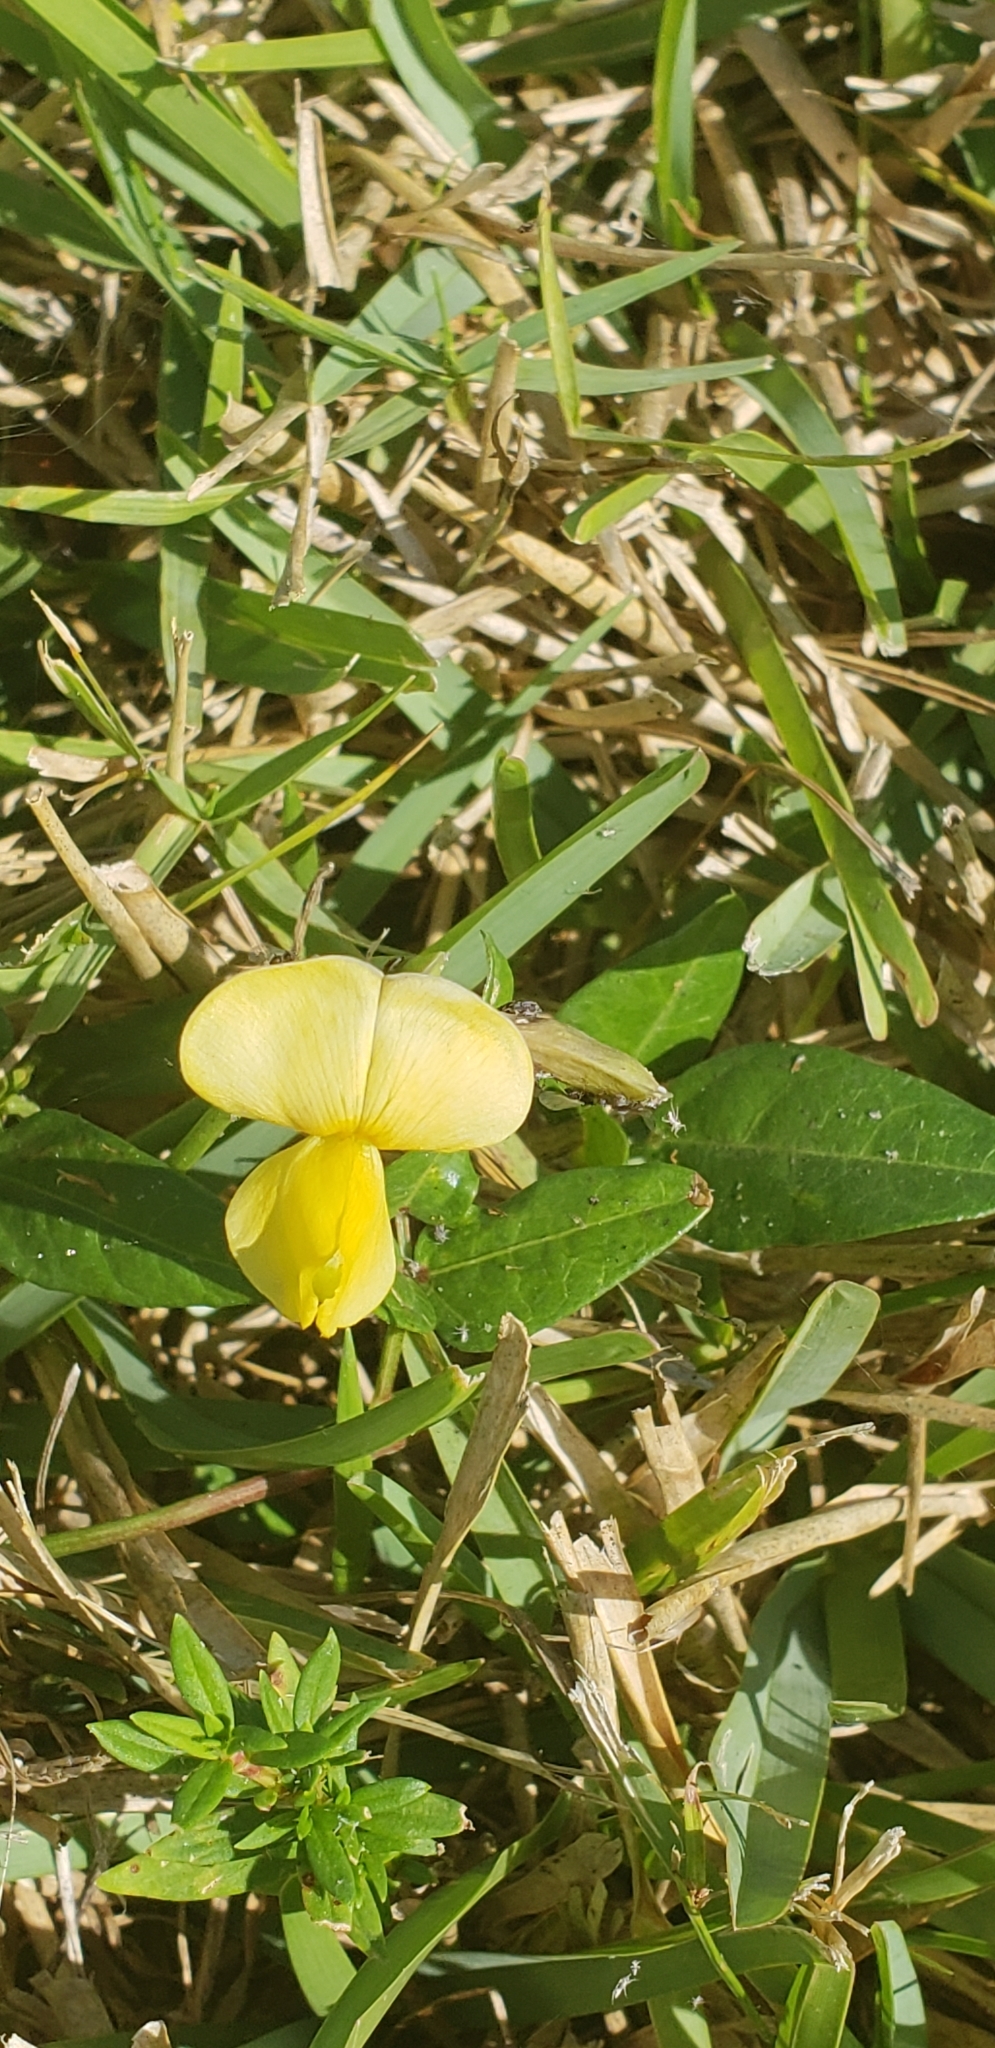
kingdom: Plantae
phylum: Tracheophyta
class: Magnoliopsida
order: Fabales
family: Fabaceae
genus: Vigna
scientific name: Vigna luteola
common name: Hairypod cowpea
